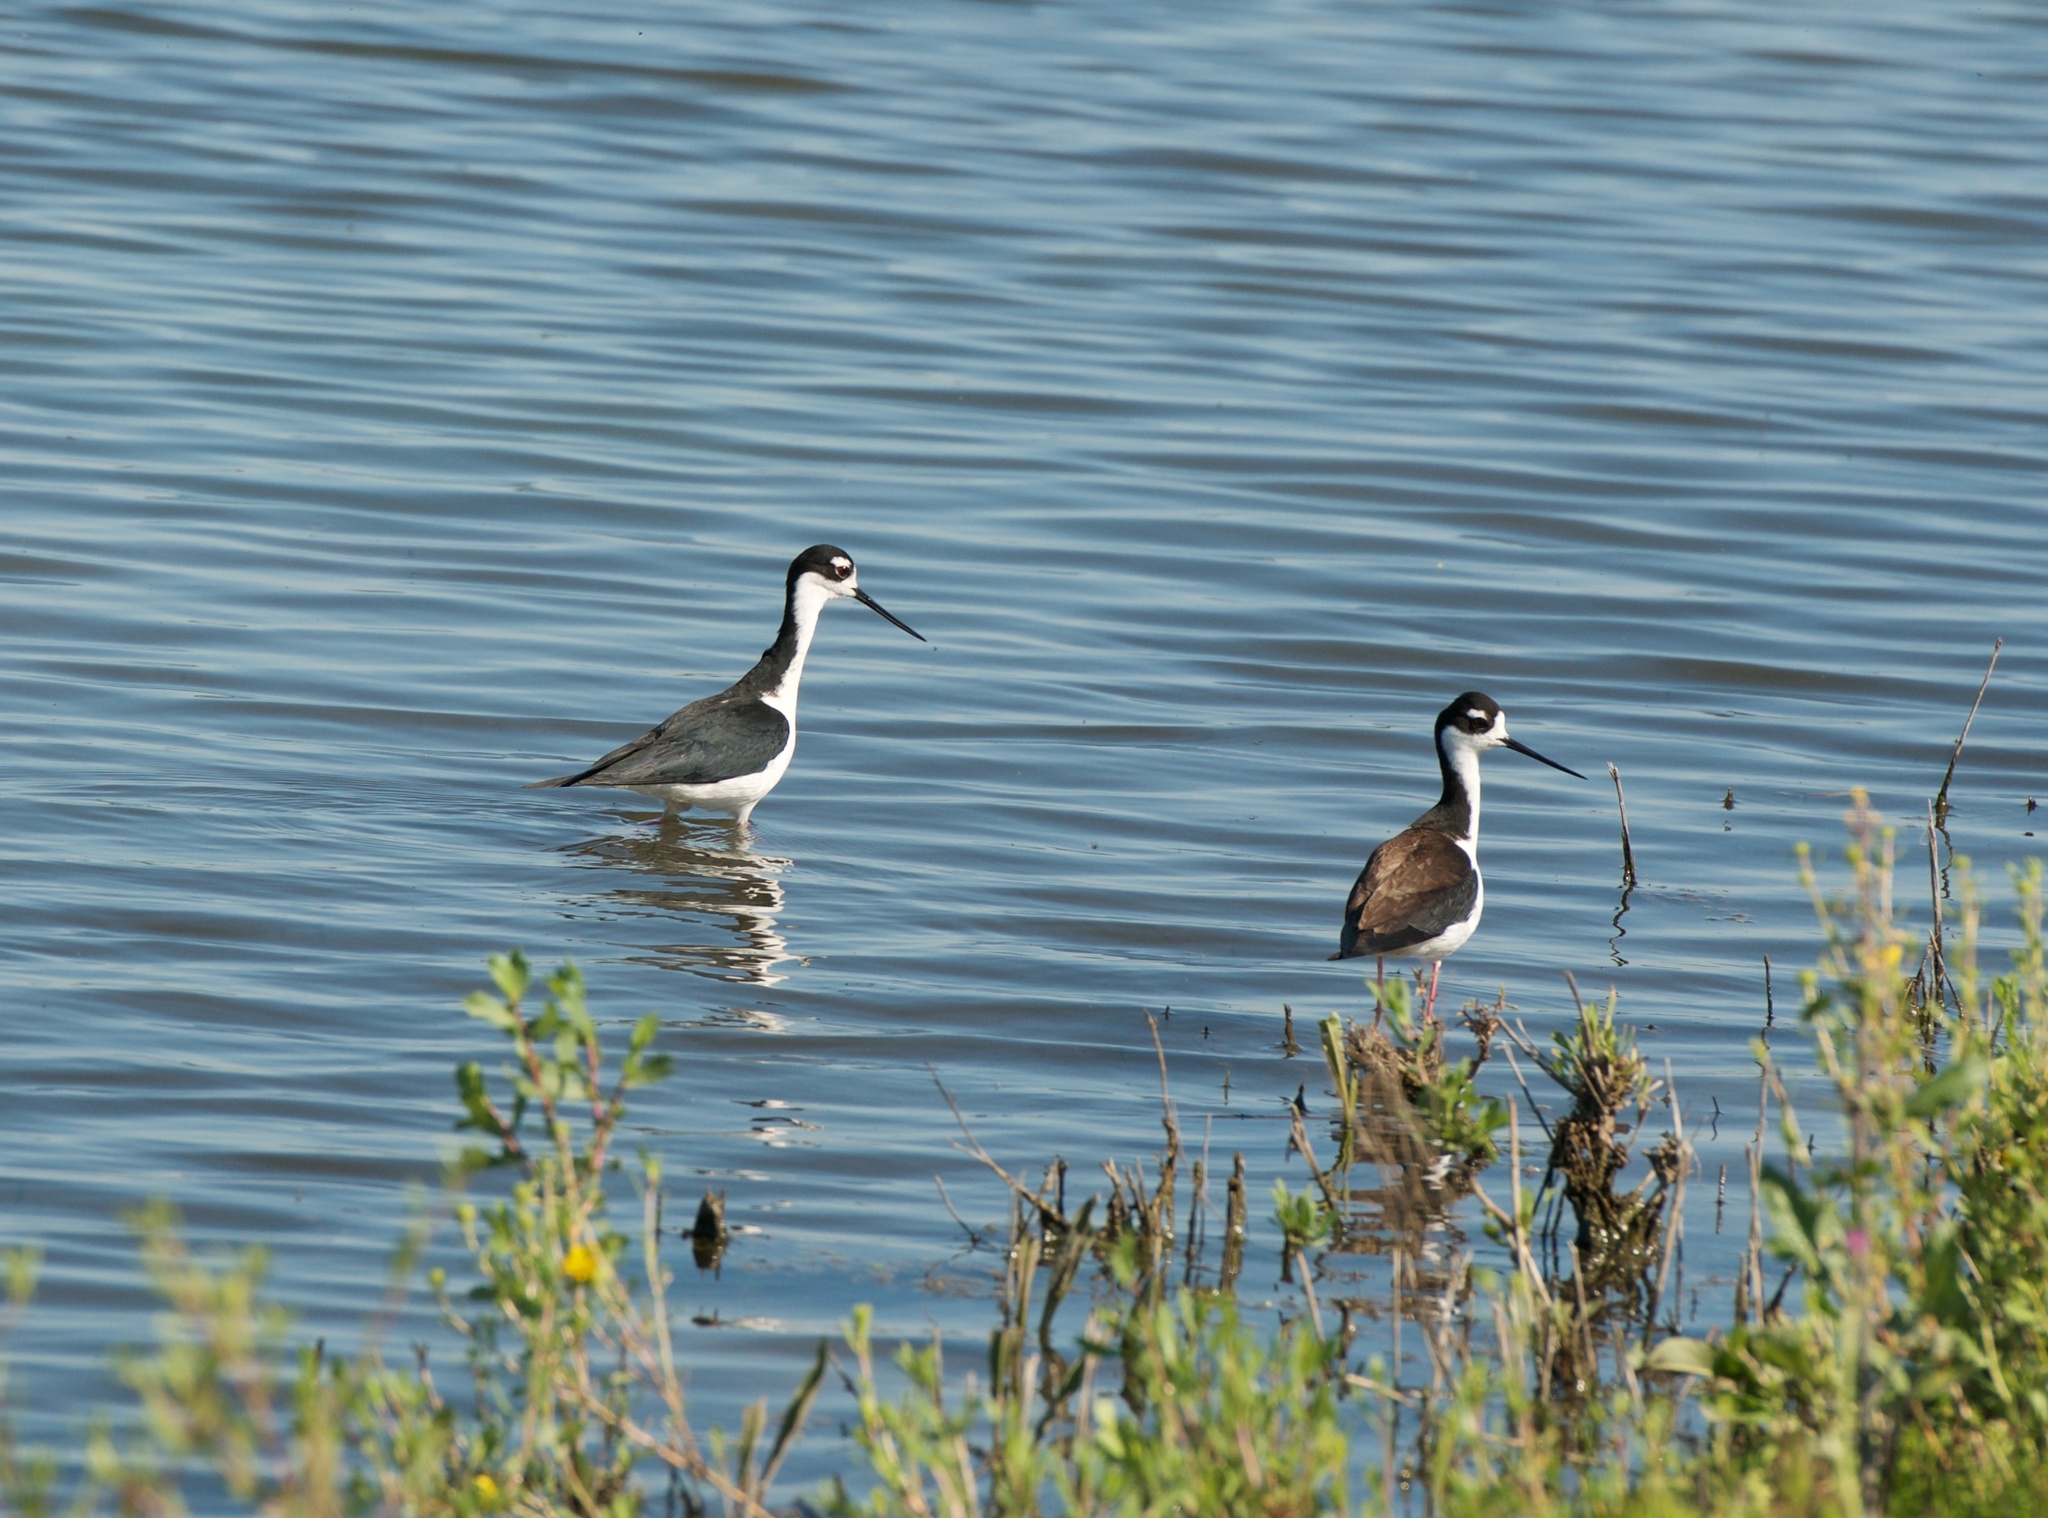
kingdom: Animalia
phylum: Chordata
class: Aves
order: Charadriiformes
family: Recurvirostridae
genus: Himantopus
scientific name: Himantopus mexicanus
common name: Black-necked stilt
